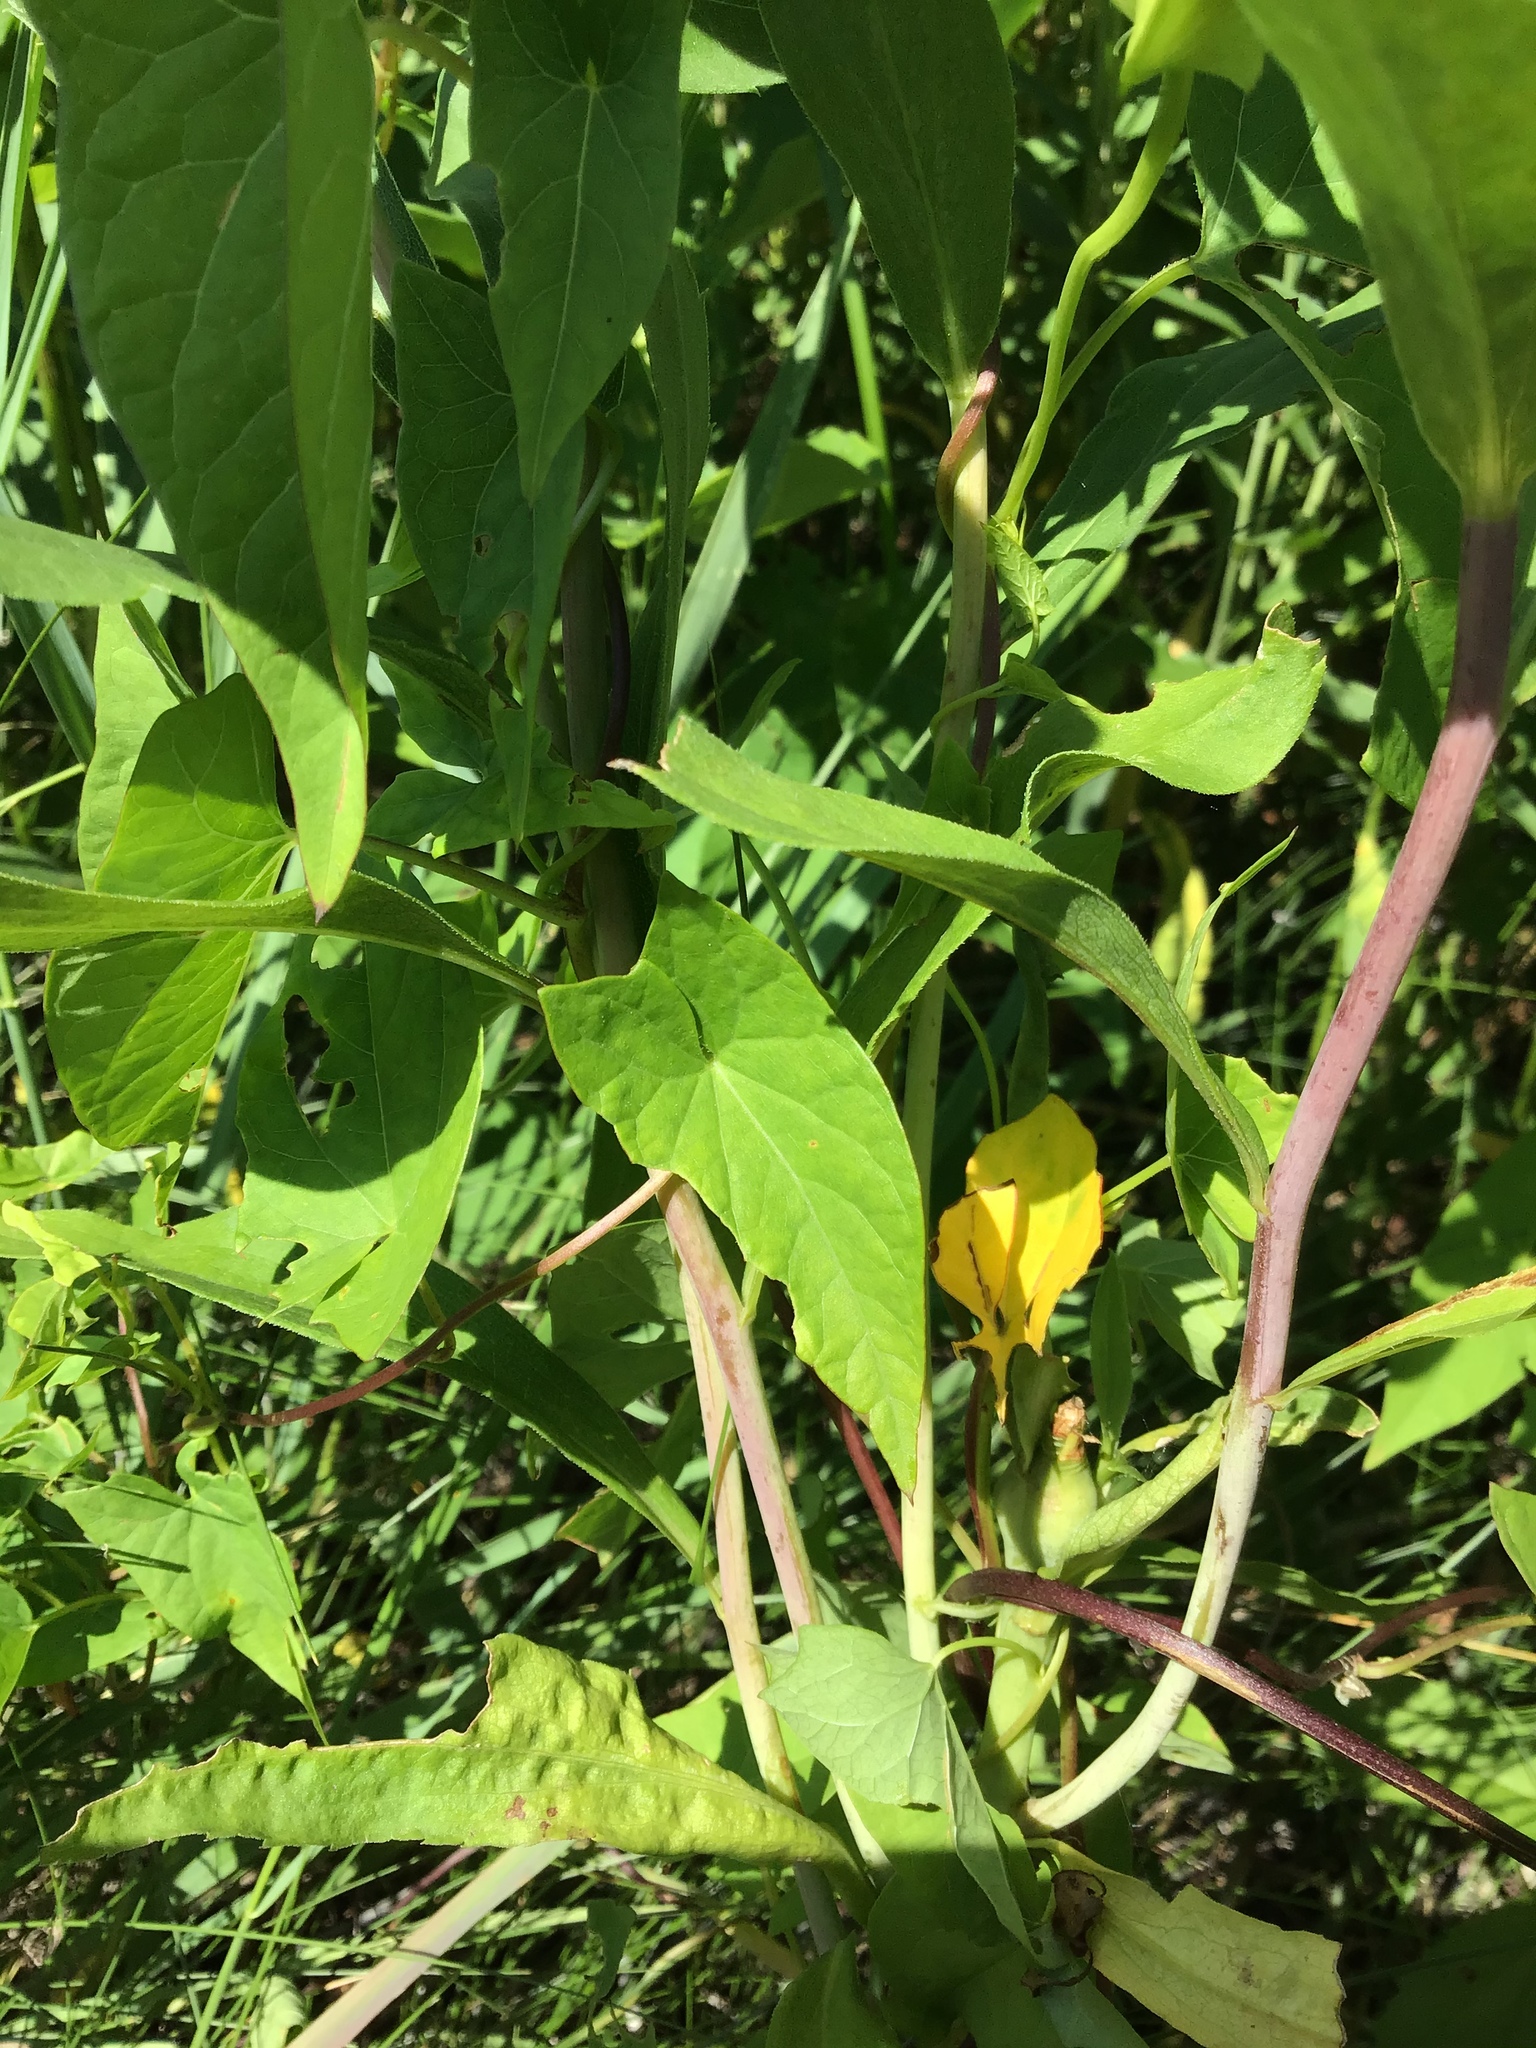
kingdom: Plantae
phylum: Tracheophyta
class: Magnoliopsida
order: Solanales
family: Convolvulaceae
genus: Calystegia
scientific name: Calystegia sepium
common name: Hedge bindweed
